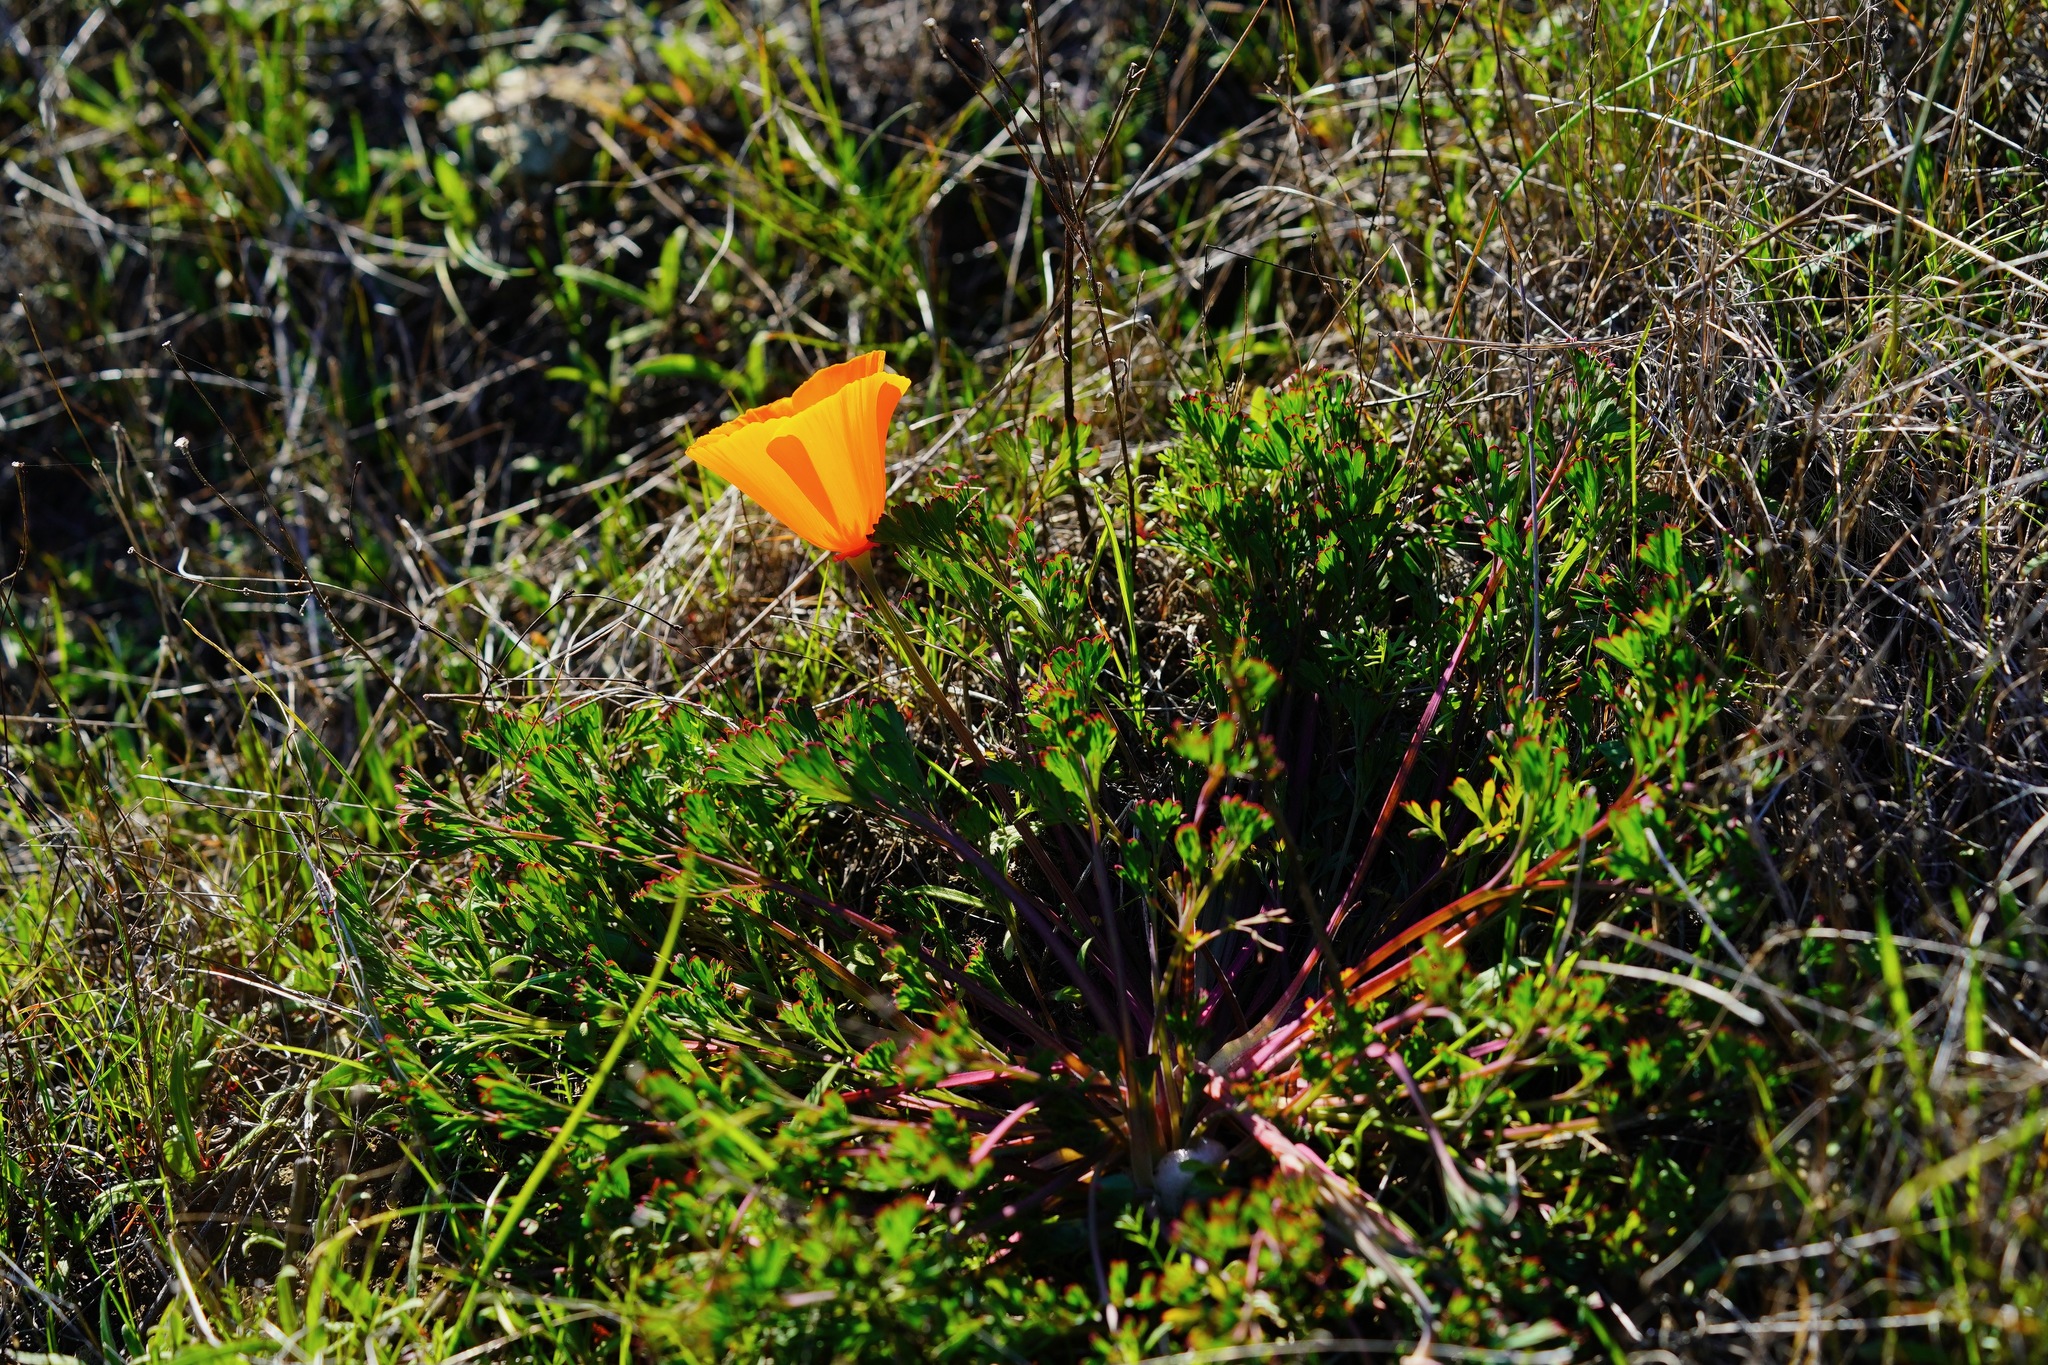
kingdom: Plantae
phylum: Tracheophyta
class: Magnoliopsida
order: Ranunculales
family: Papaveraceae
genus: Eschscholzia
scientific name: Eschscholzia californica
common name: California poppy
